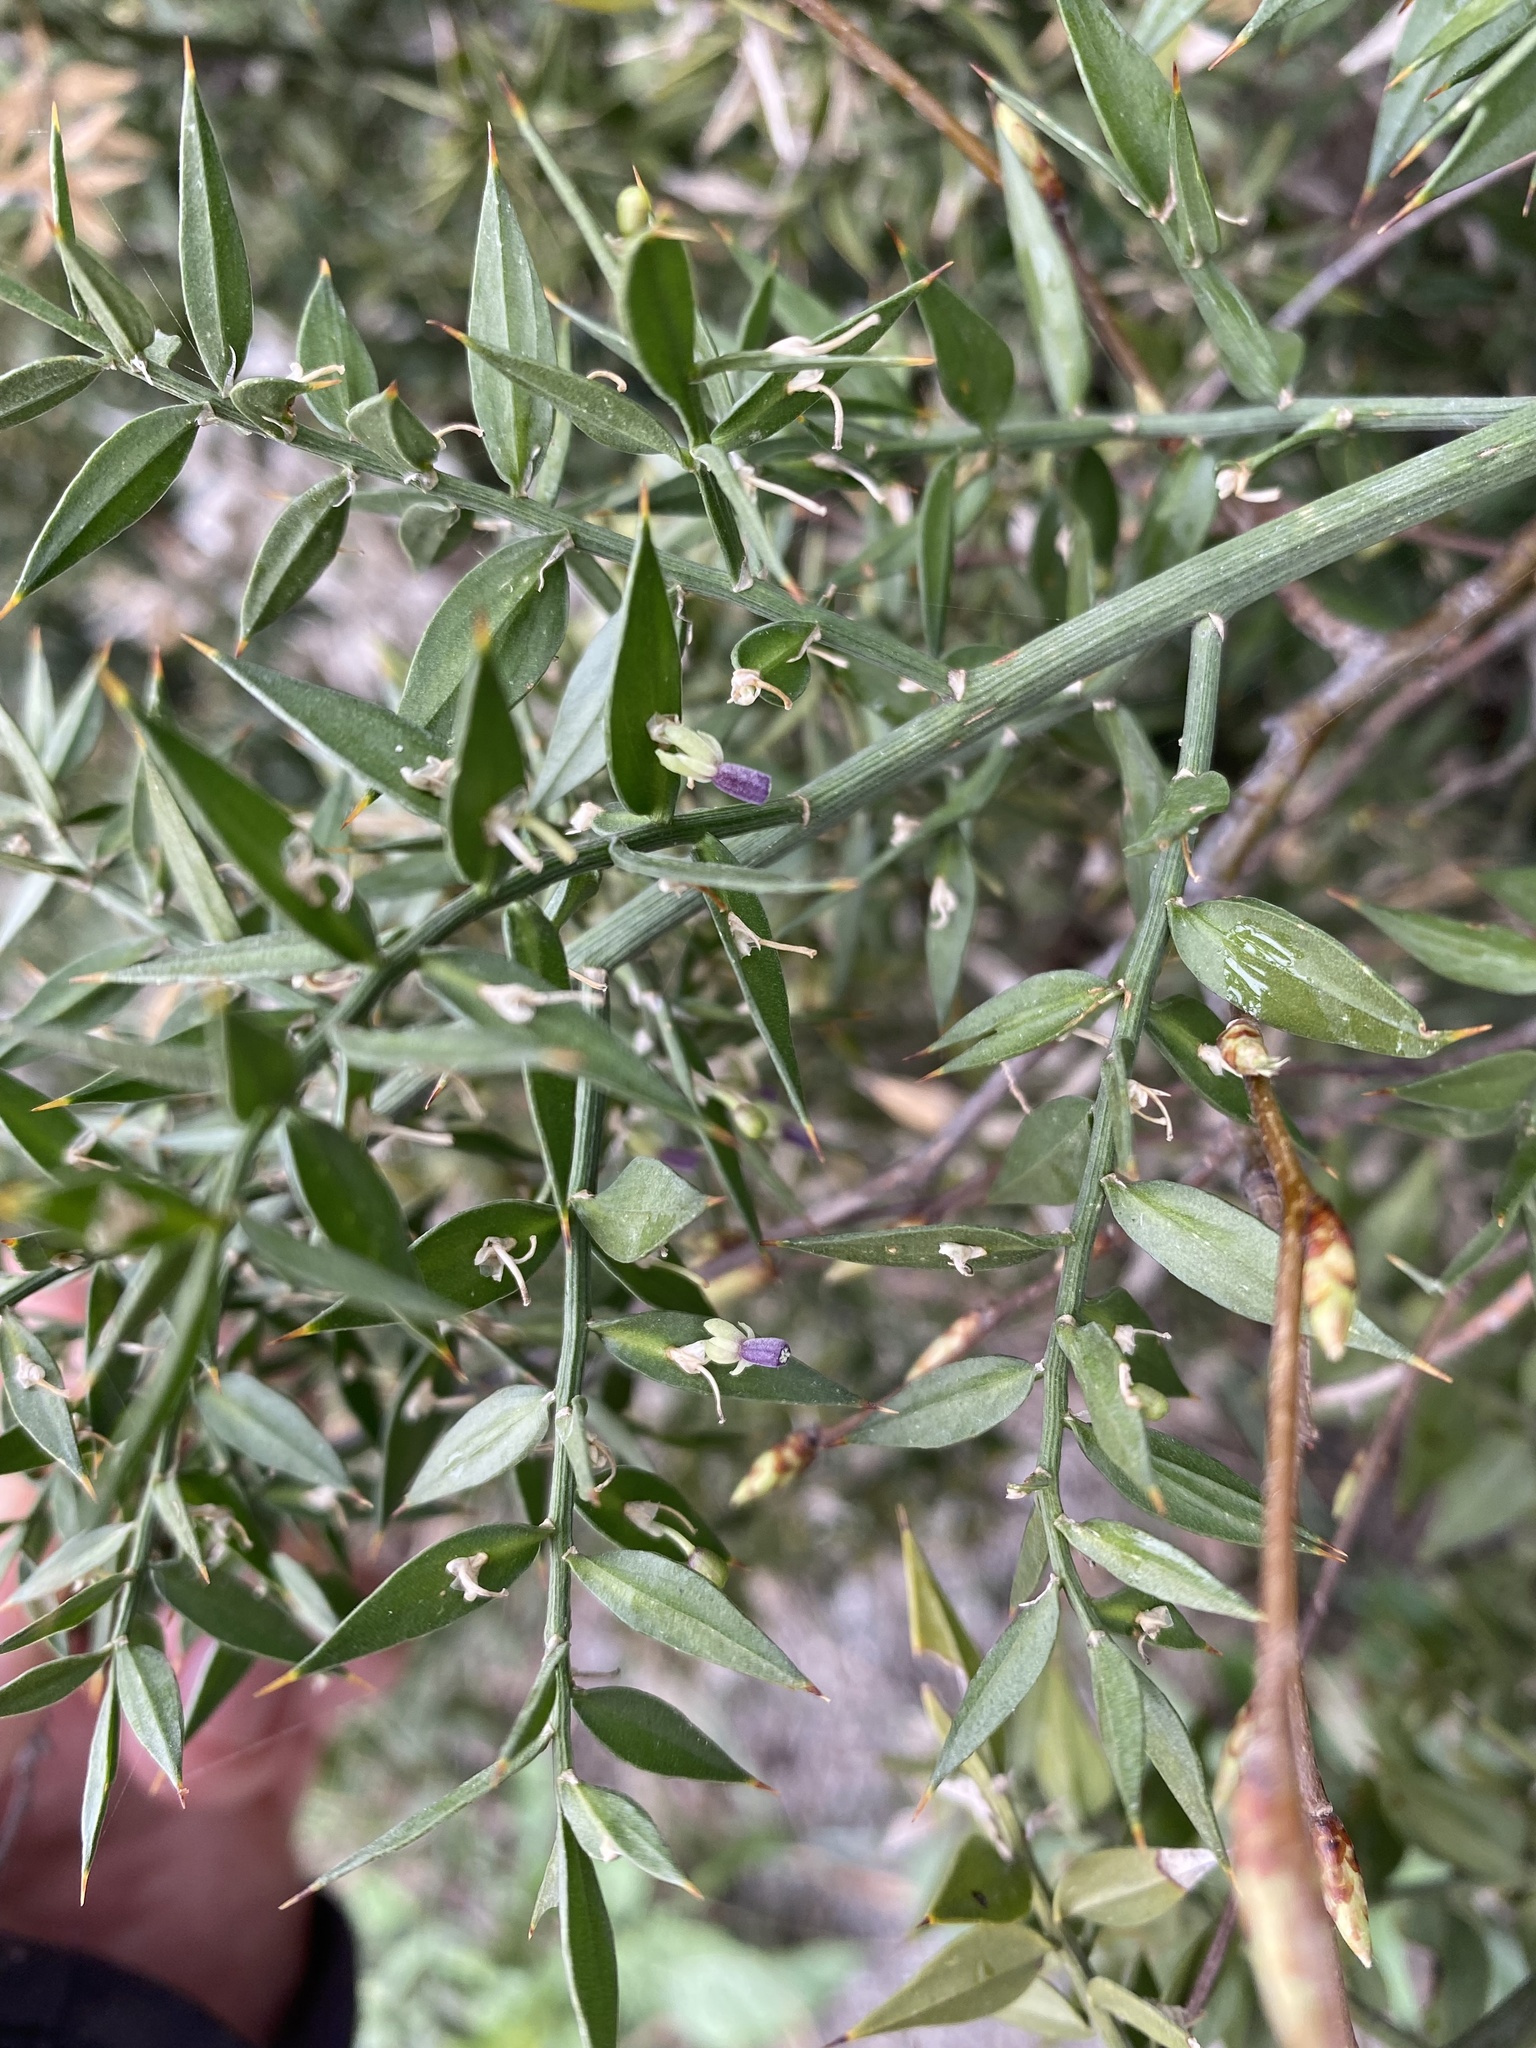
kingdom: Plantae
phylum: Tracheophyta
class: Liliopsida
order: Asparagales
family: Asparagaceae
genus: Ruscus
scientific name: Ruscus aculeatus
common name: Butcher's-broom
